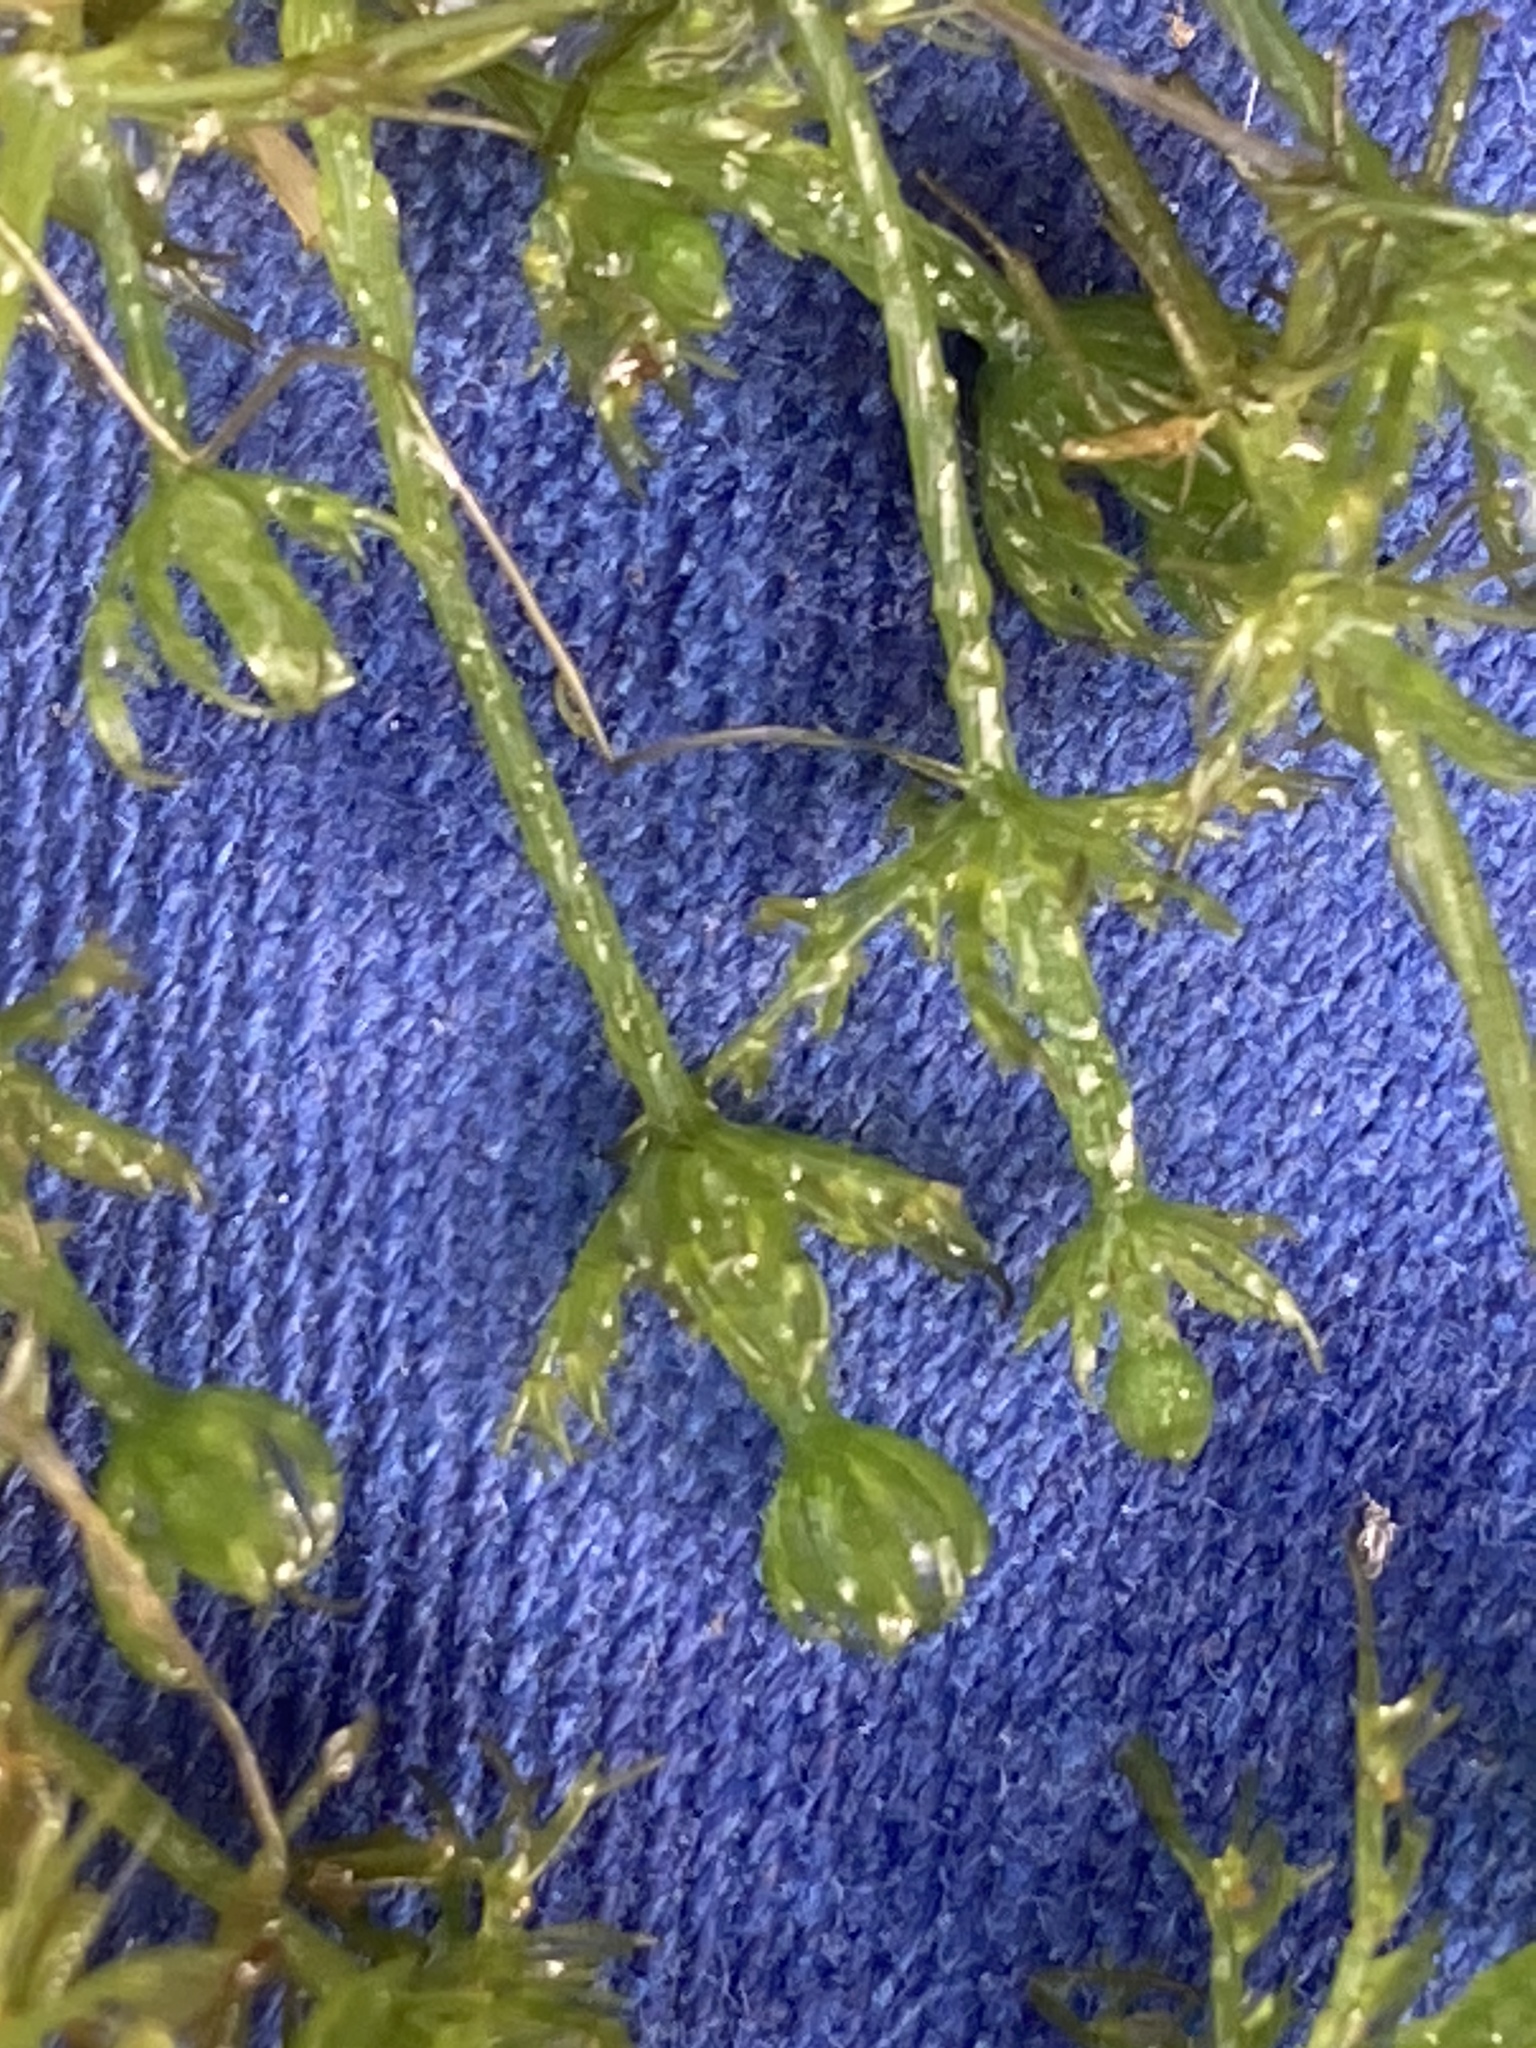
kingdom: Plantae
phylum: Charophyta
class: Charophyceae
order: Charales
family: Characeae
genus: Chara
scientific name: Chara vulgaris
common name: Common stonewort
